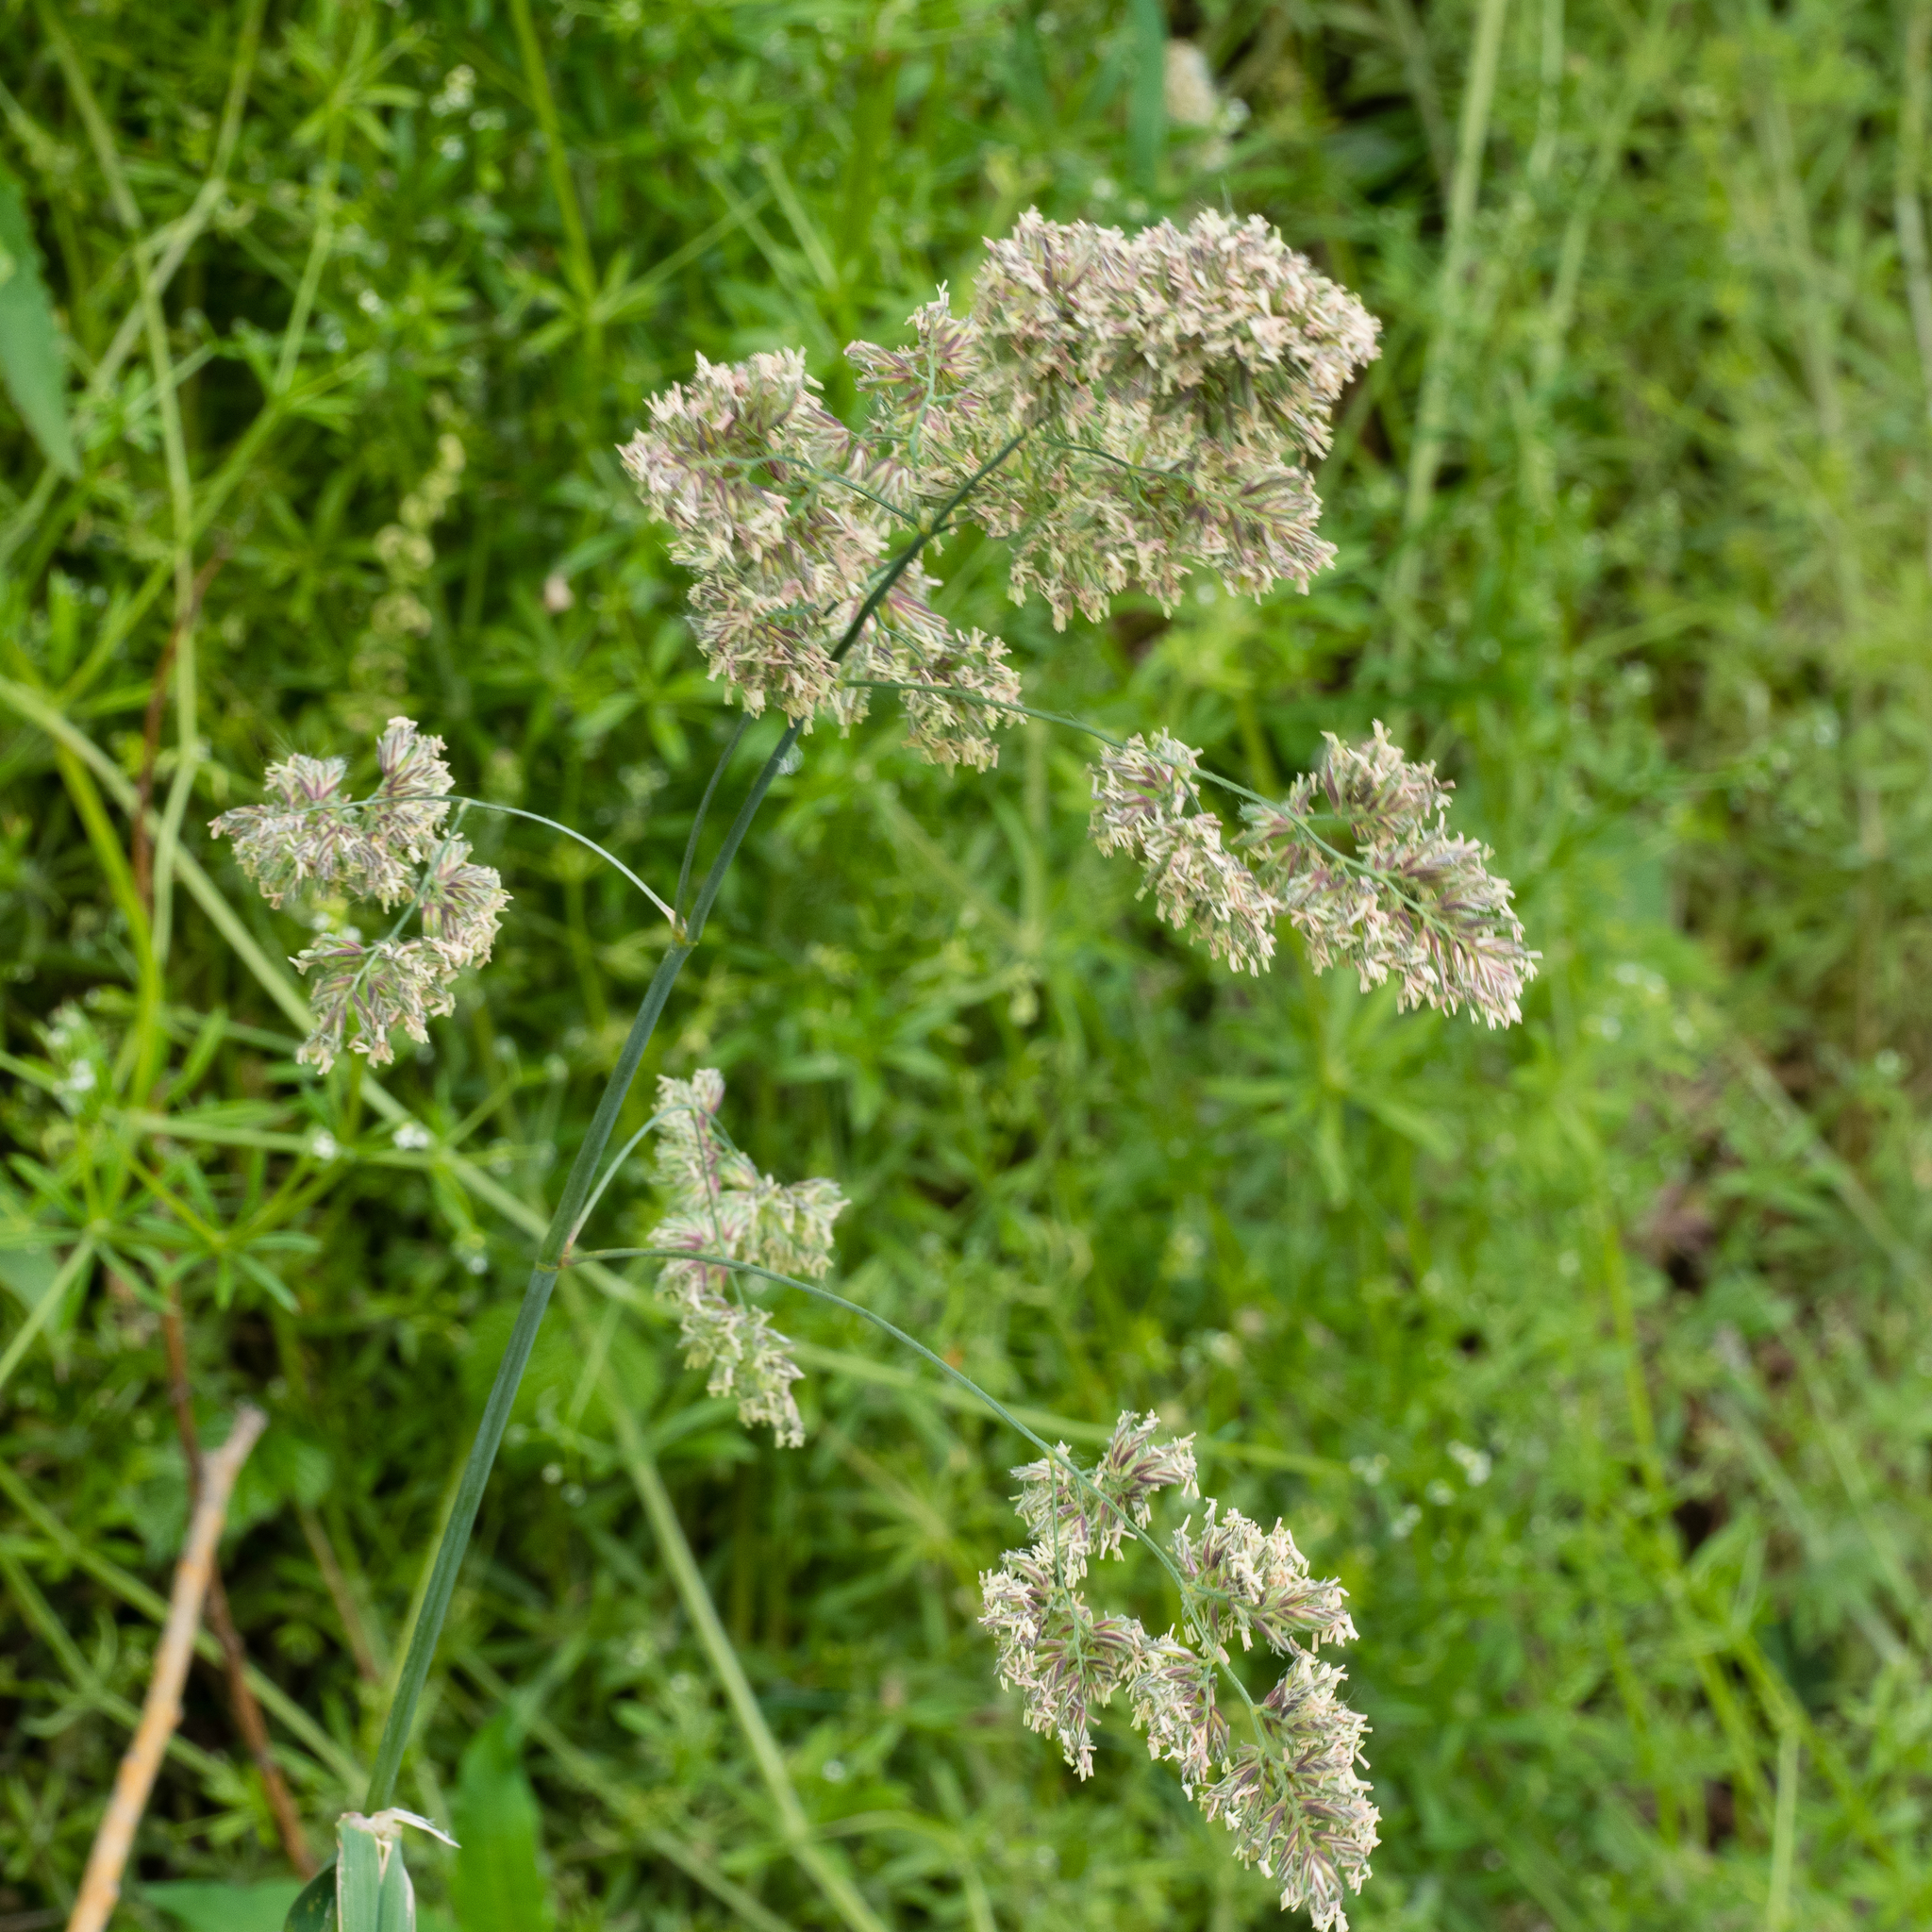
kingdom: Plantae
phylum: Tracheophyta
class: Liliopsida
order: Poales
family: Poaceae
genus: Dactylis
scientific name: Dactylis glomerata
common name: Orchardgrass
